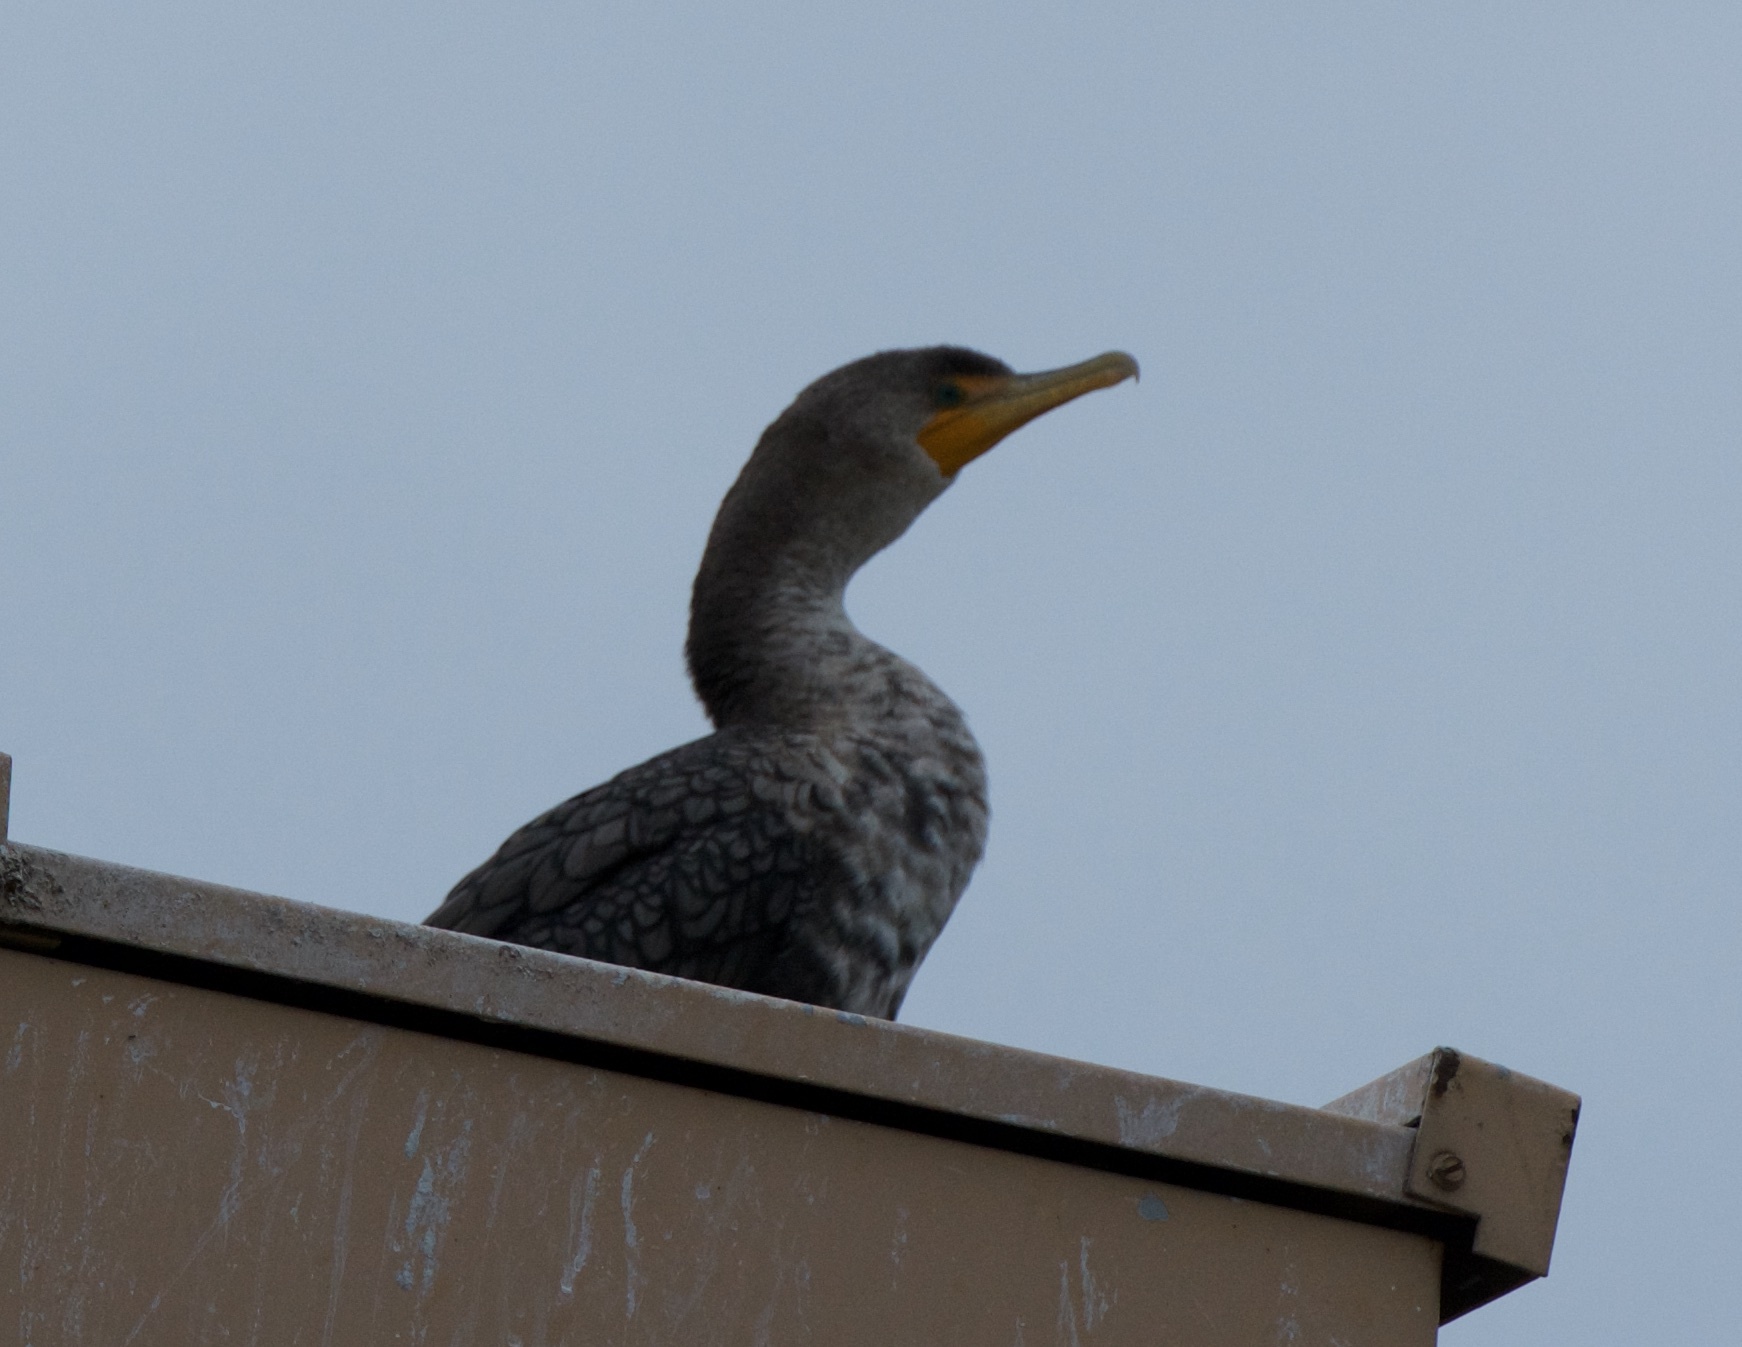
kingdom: Animalia
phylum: Chordata
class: Aves
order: Suliformes
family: Phalacrocoracidae
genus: Phalacrocorax
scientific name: Phalacrocorax auritus
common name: Double-crested cormorant
